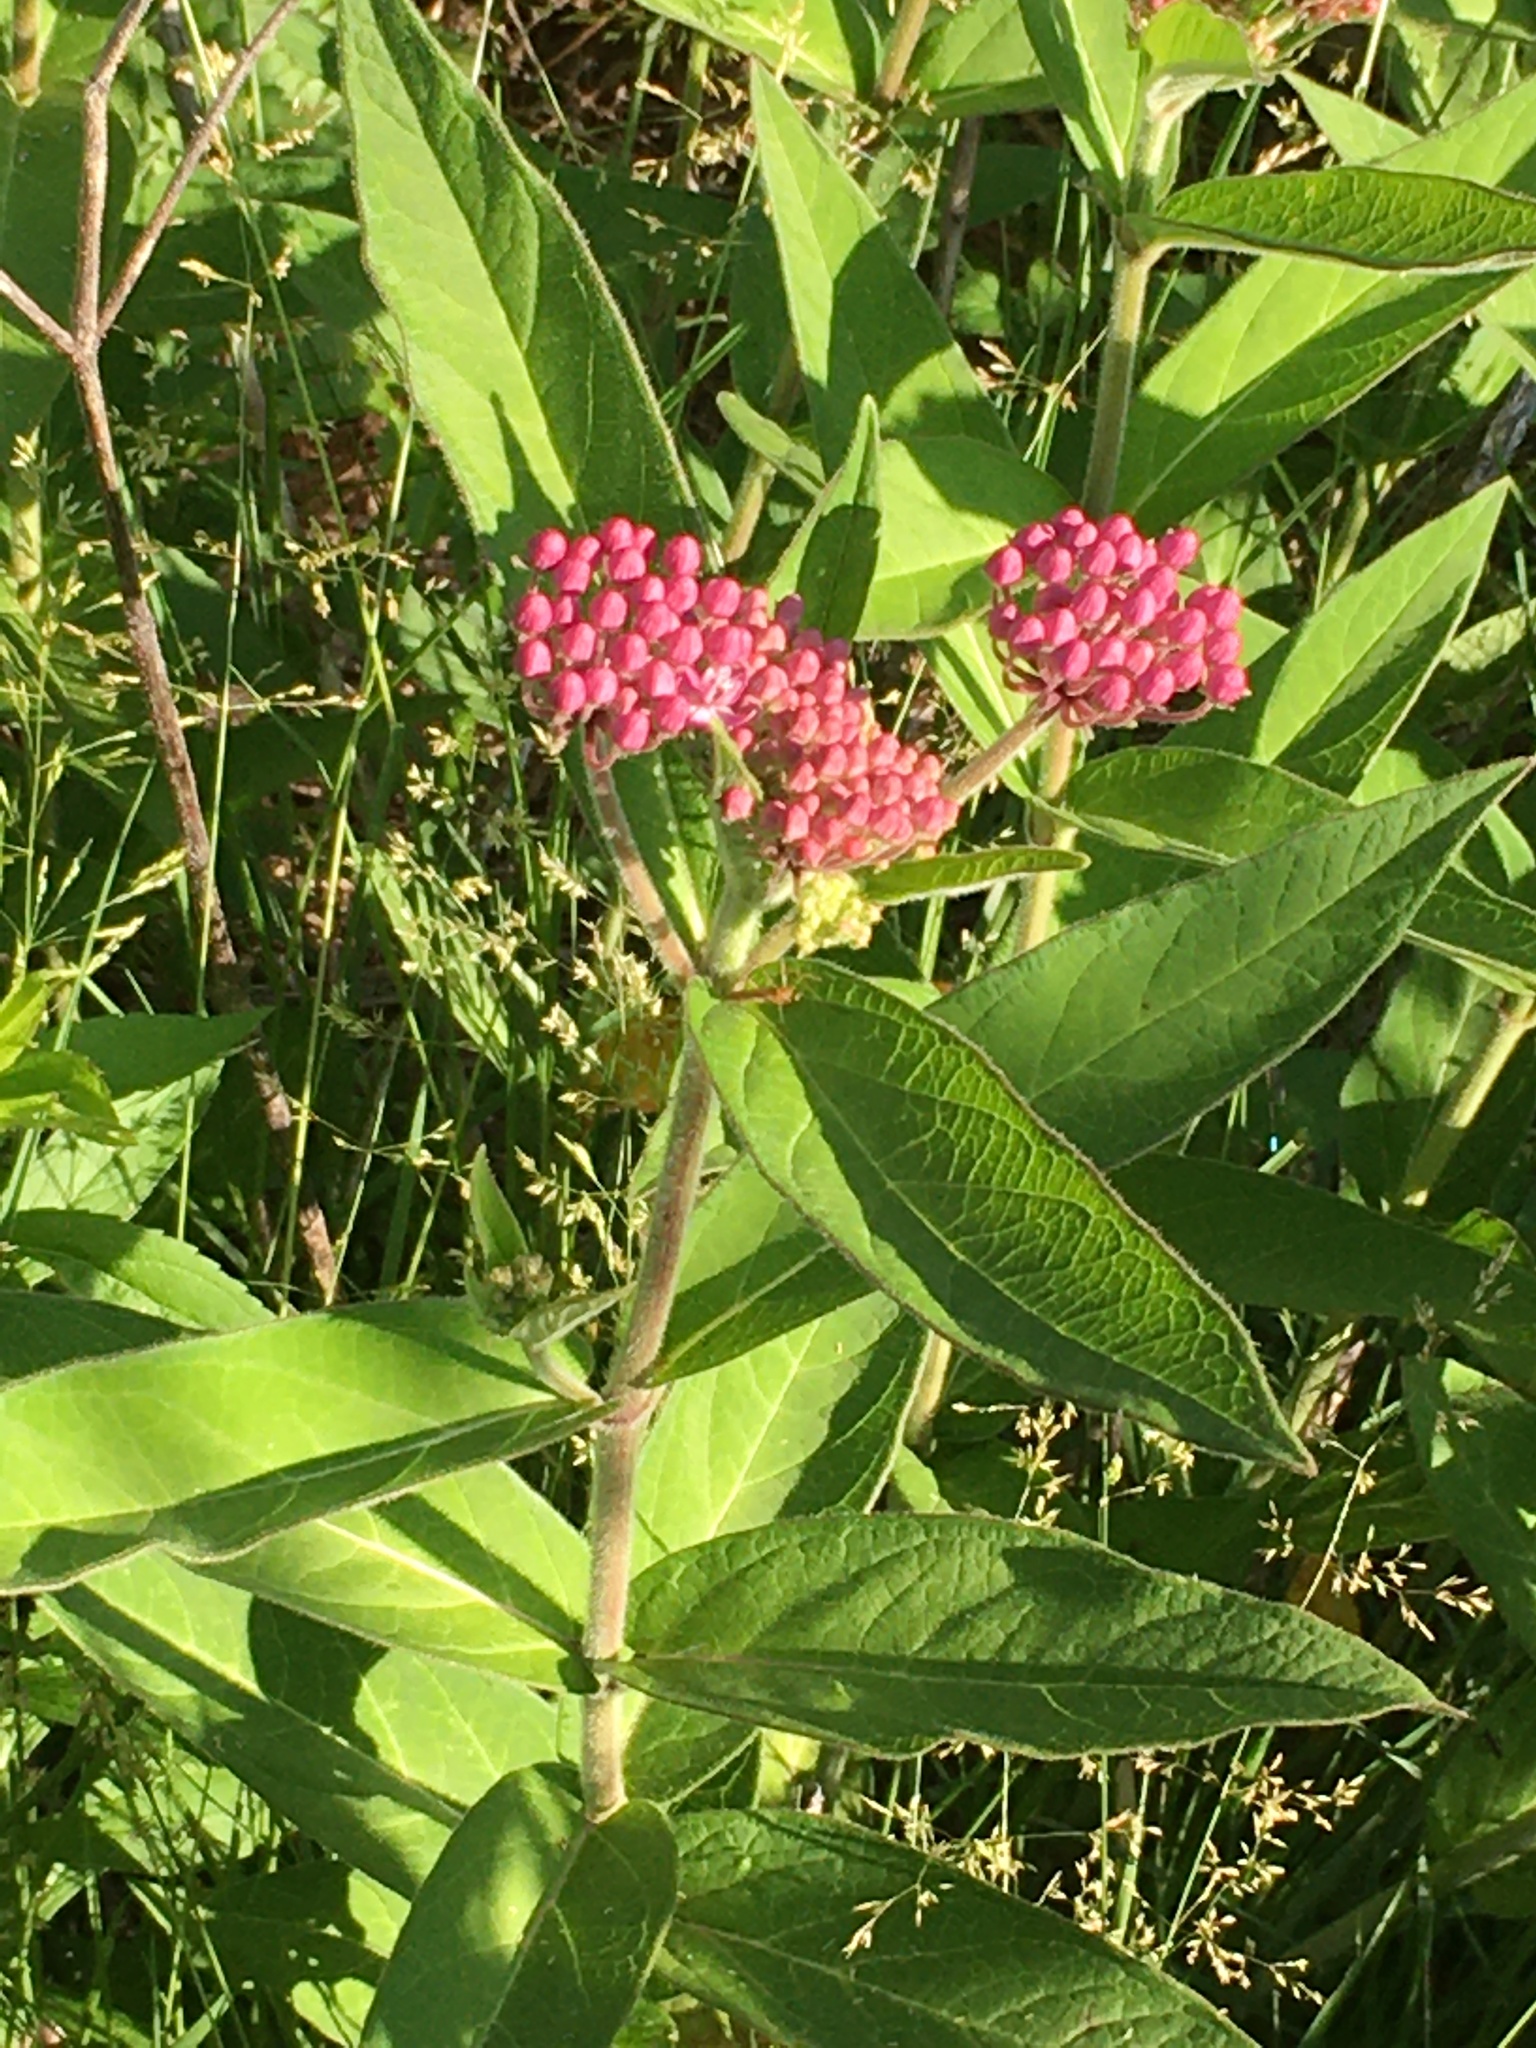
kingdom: Plantae
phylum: Tracheophyta
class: Magnoliopsida
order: Gentianales
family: Apocynaceae
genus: Asclepias
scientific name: Asclepias incarnata
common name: Swamp milkweed
